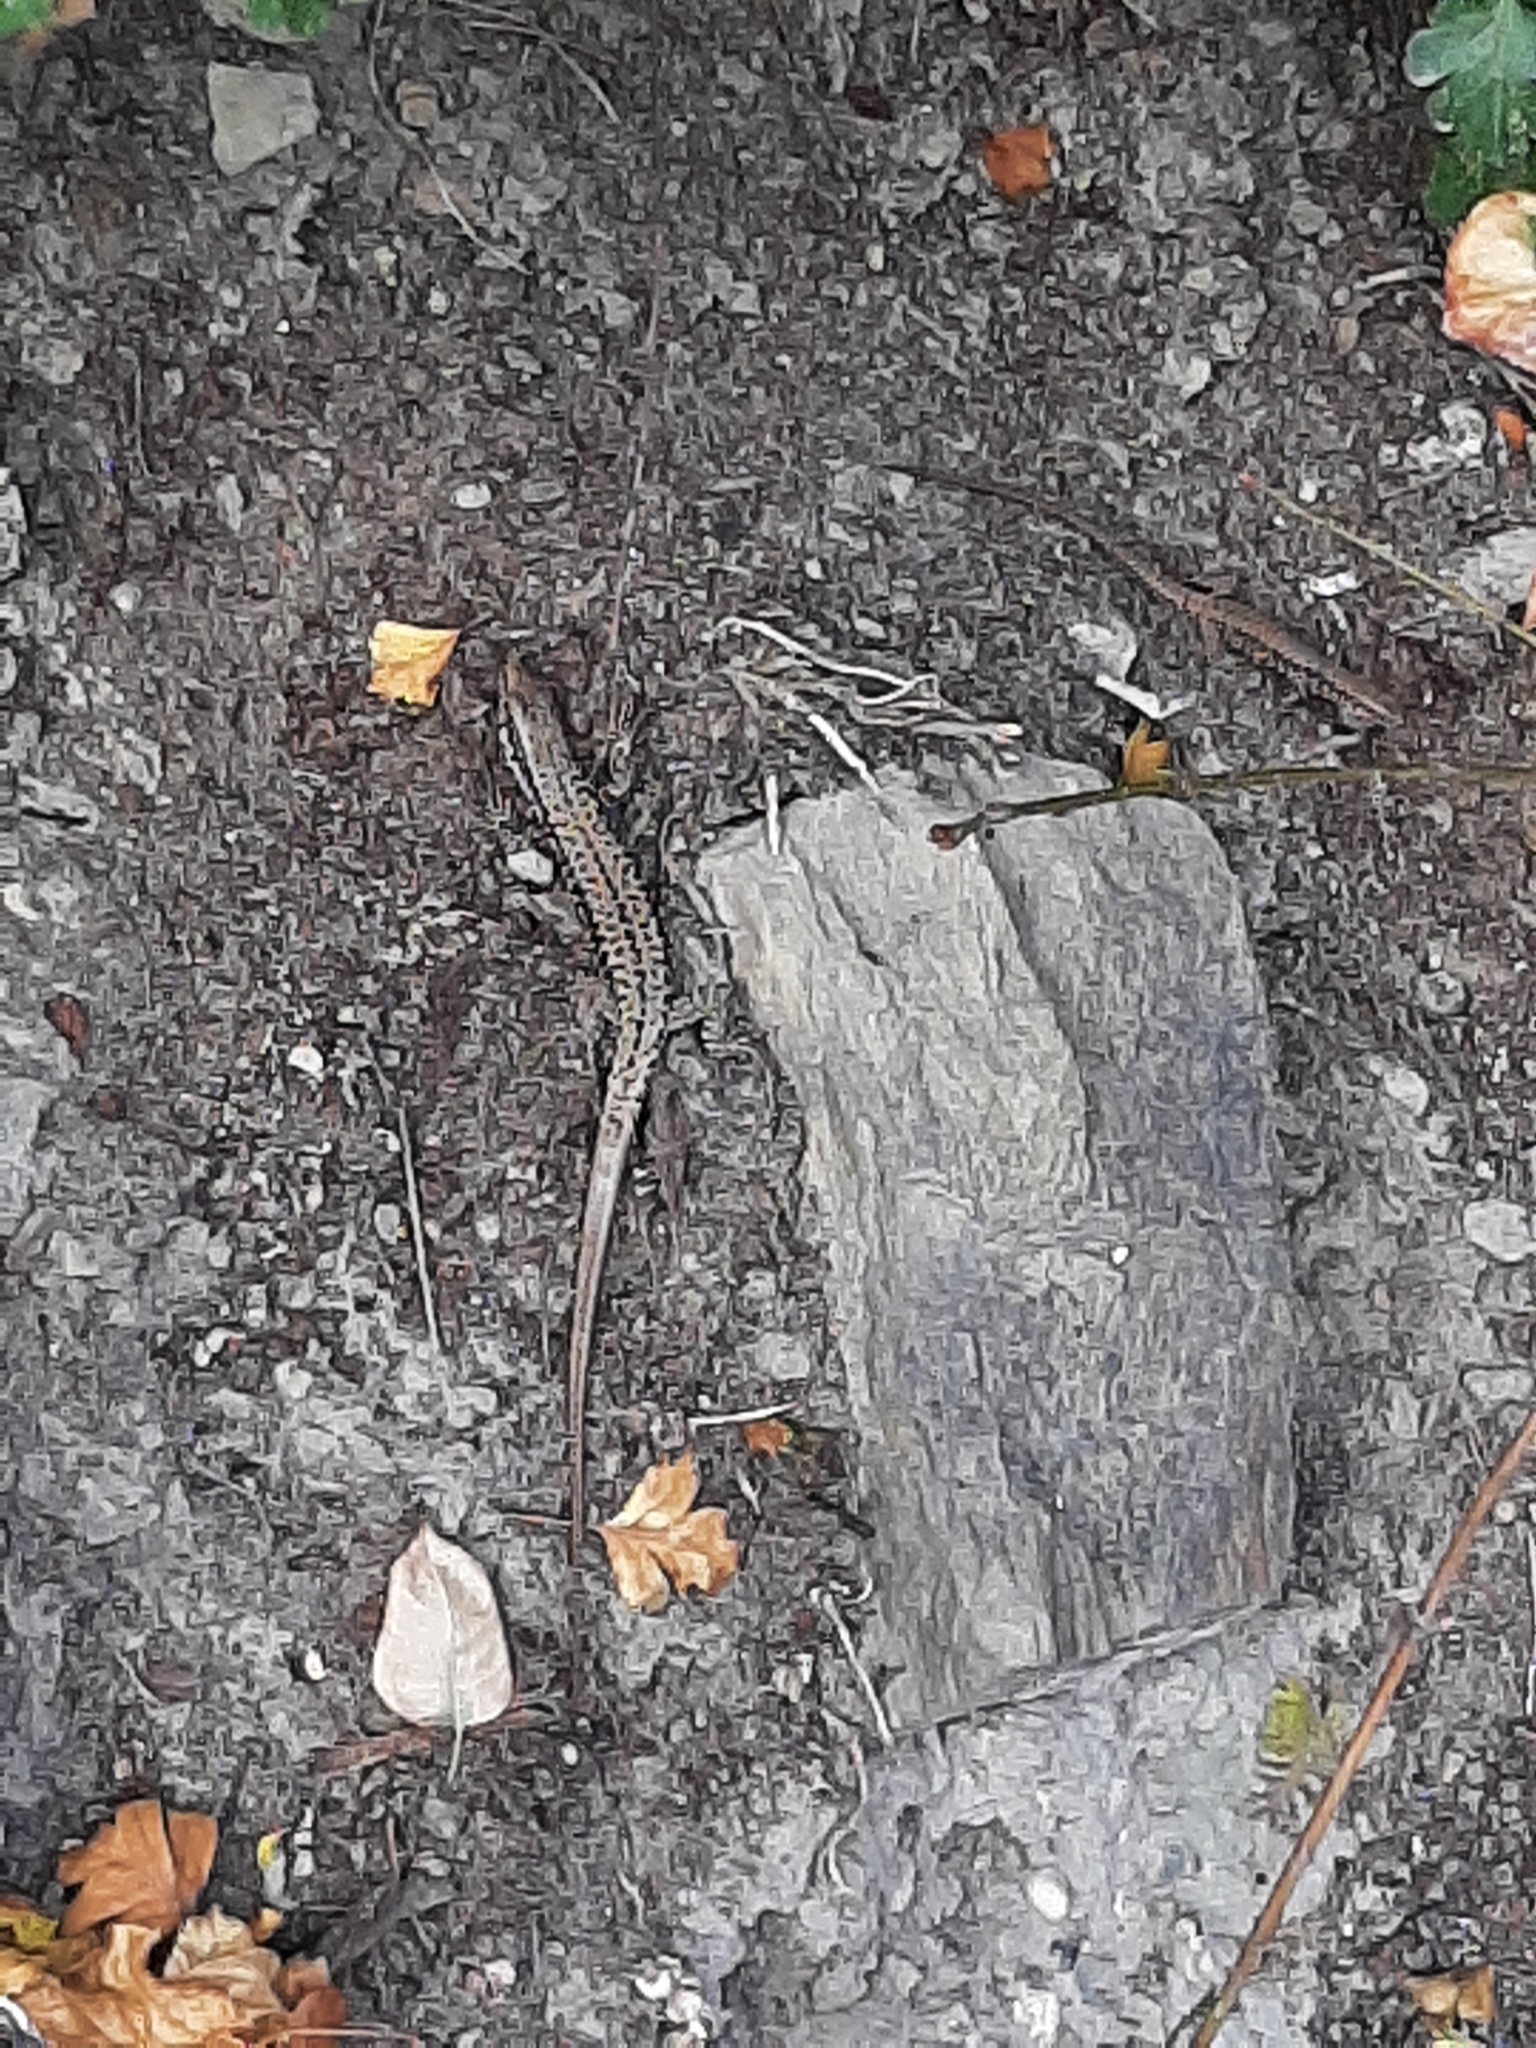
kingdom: Animalia
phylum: Chordata
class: Squamata
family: Lacertidae
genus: Podarcis
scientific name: Podarcis muralis
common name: Common wall lizard
